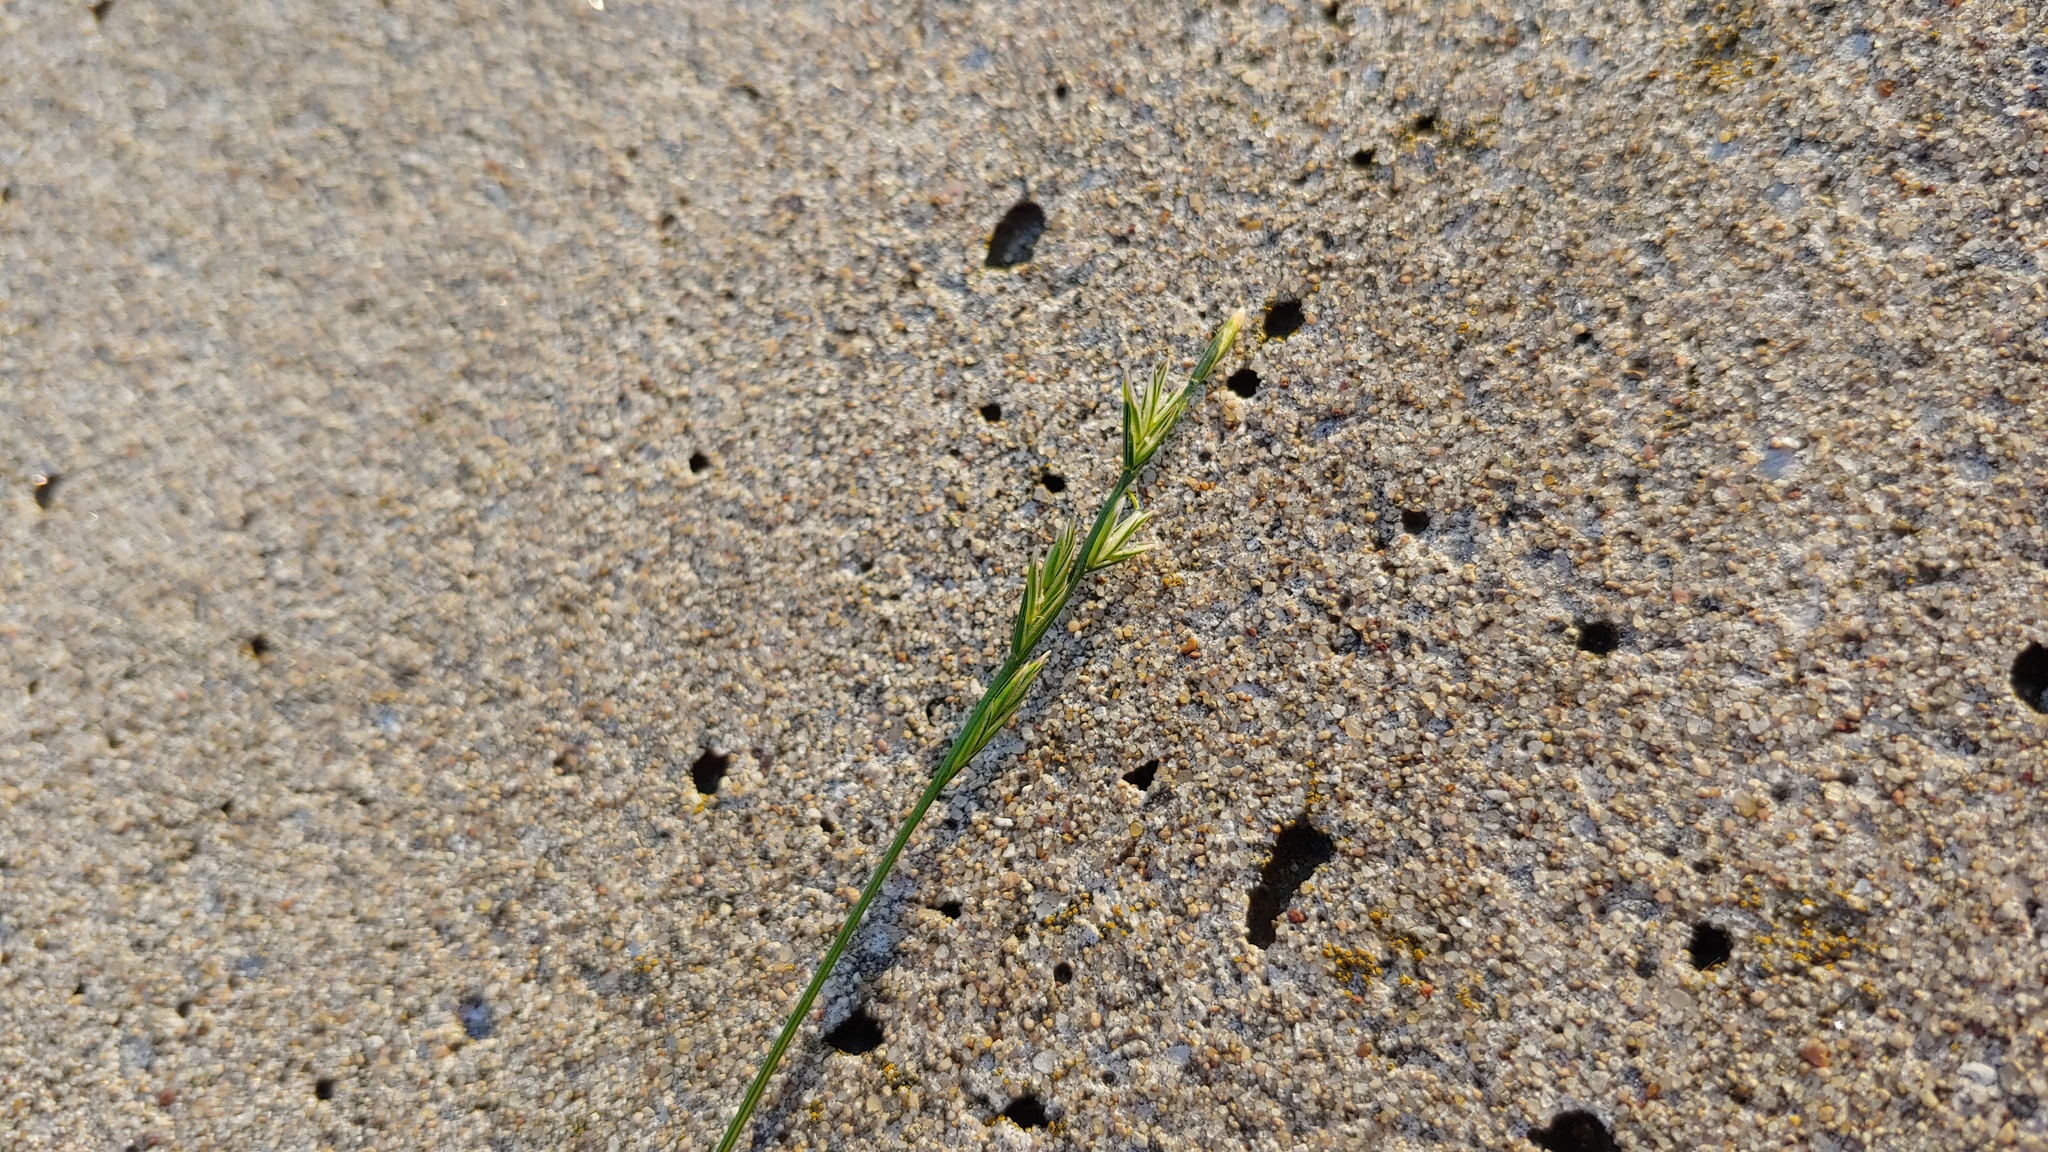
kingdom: Plantae
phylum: Tracheophyta
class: Liliopsida
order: Poales
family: Poaceae
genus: Lolium
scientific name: Lolium perenne
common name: Perennial ryegrass
